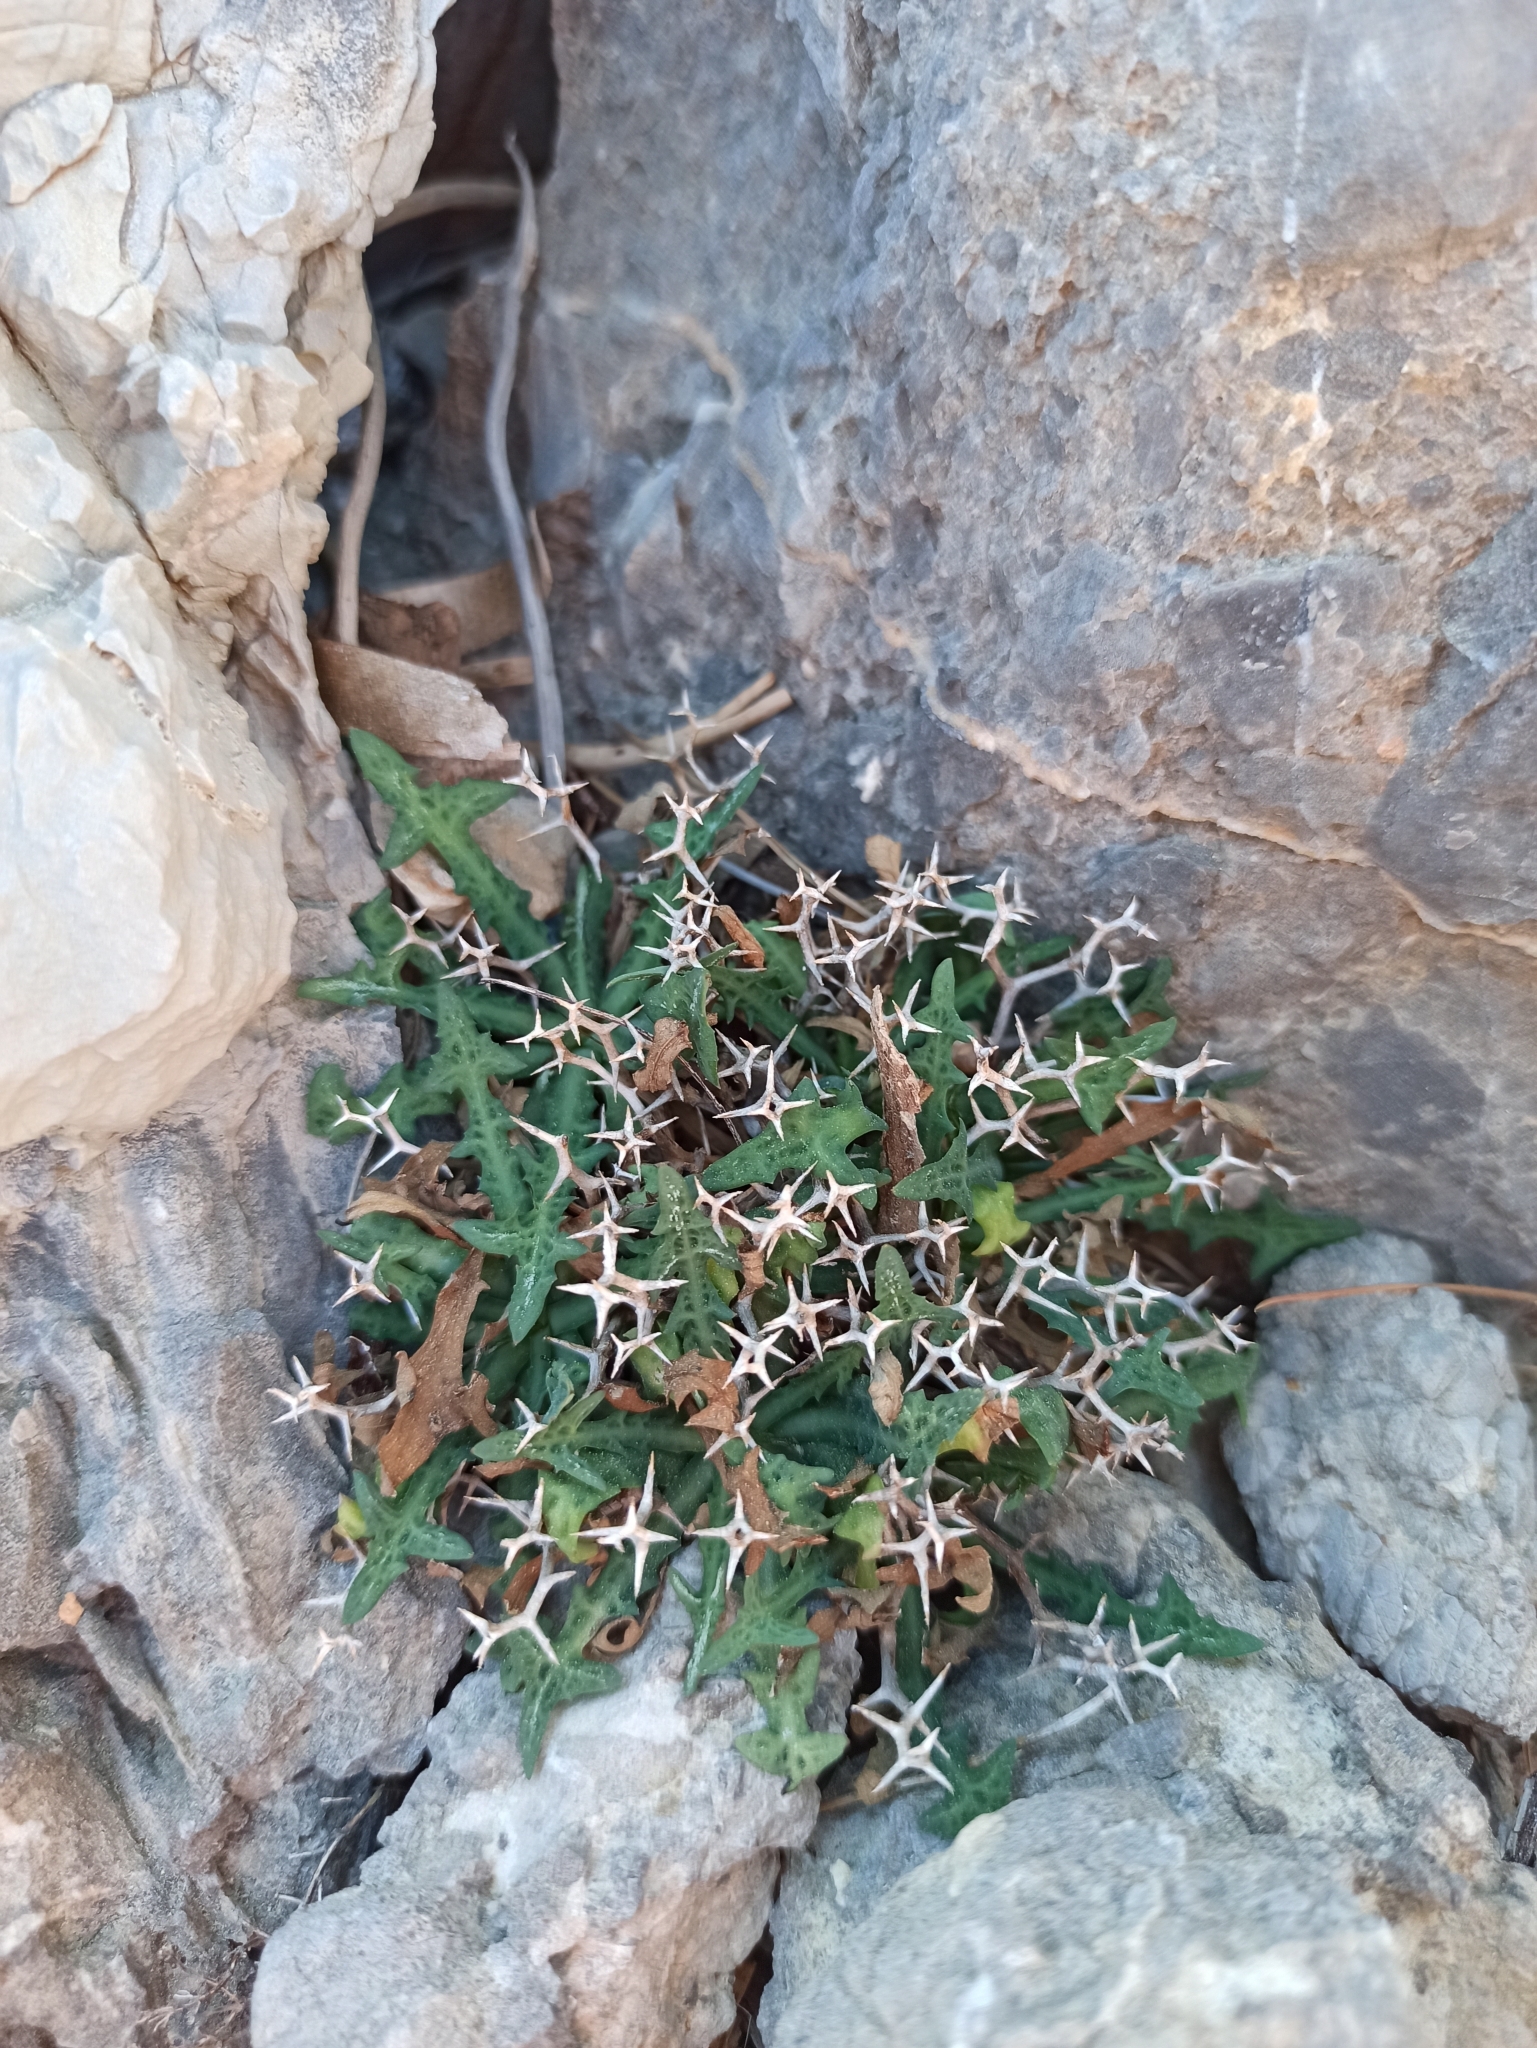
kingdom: Plantae
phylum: Tracheophyta
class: Magnoliopsida
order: Asterales
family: Asteraceae
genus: Launaea
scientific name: Launaea cervicornis
